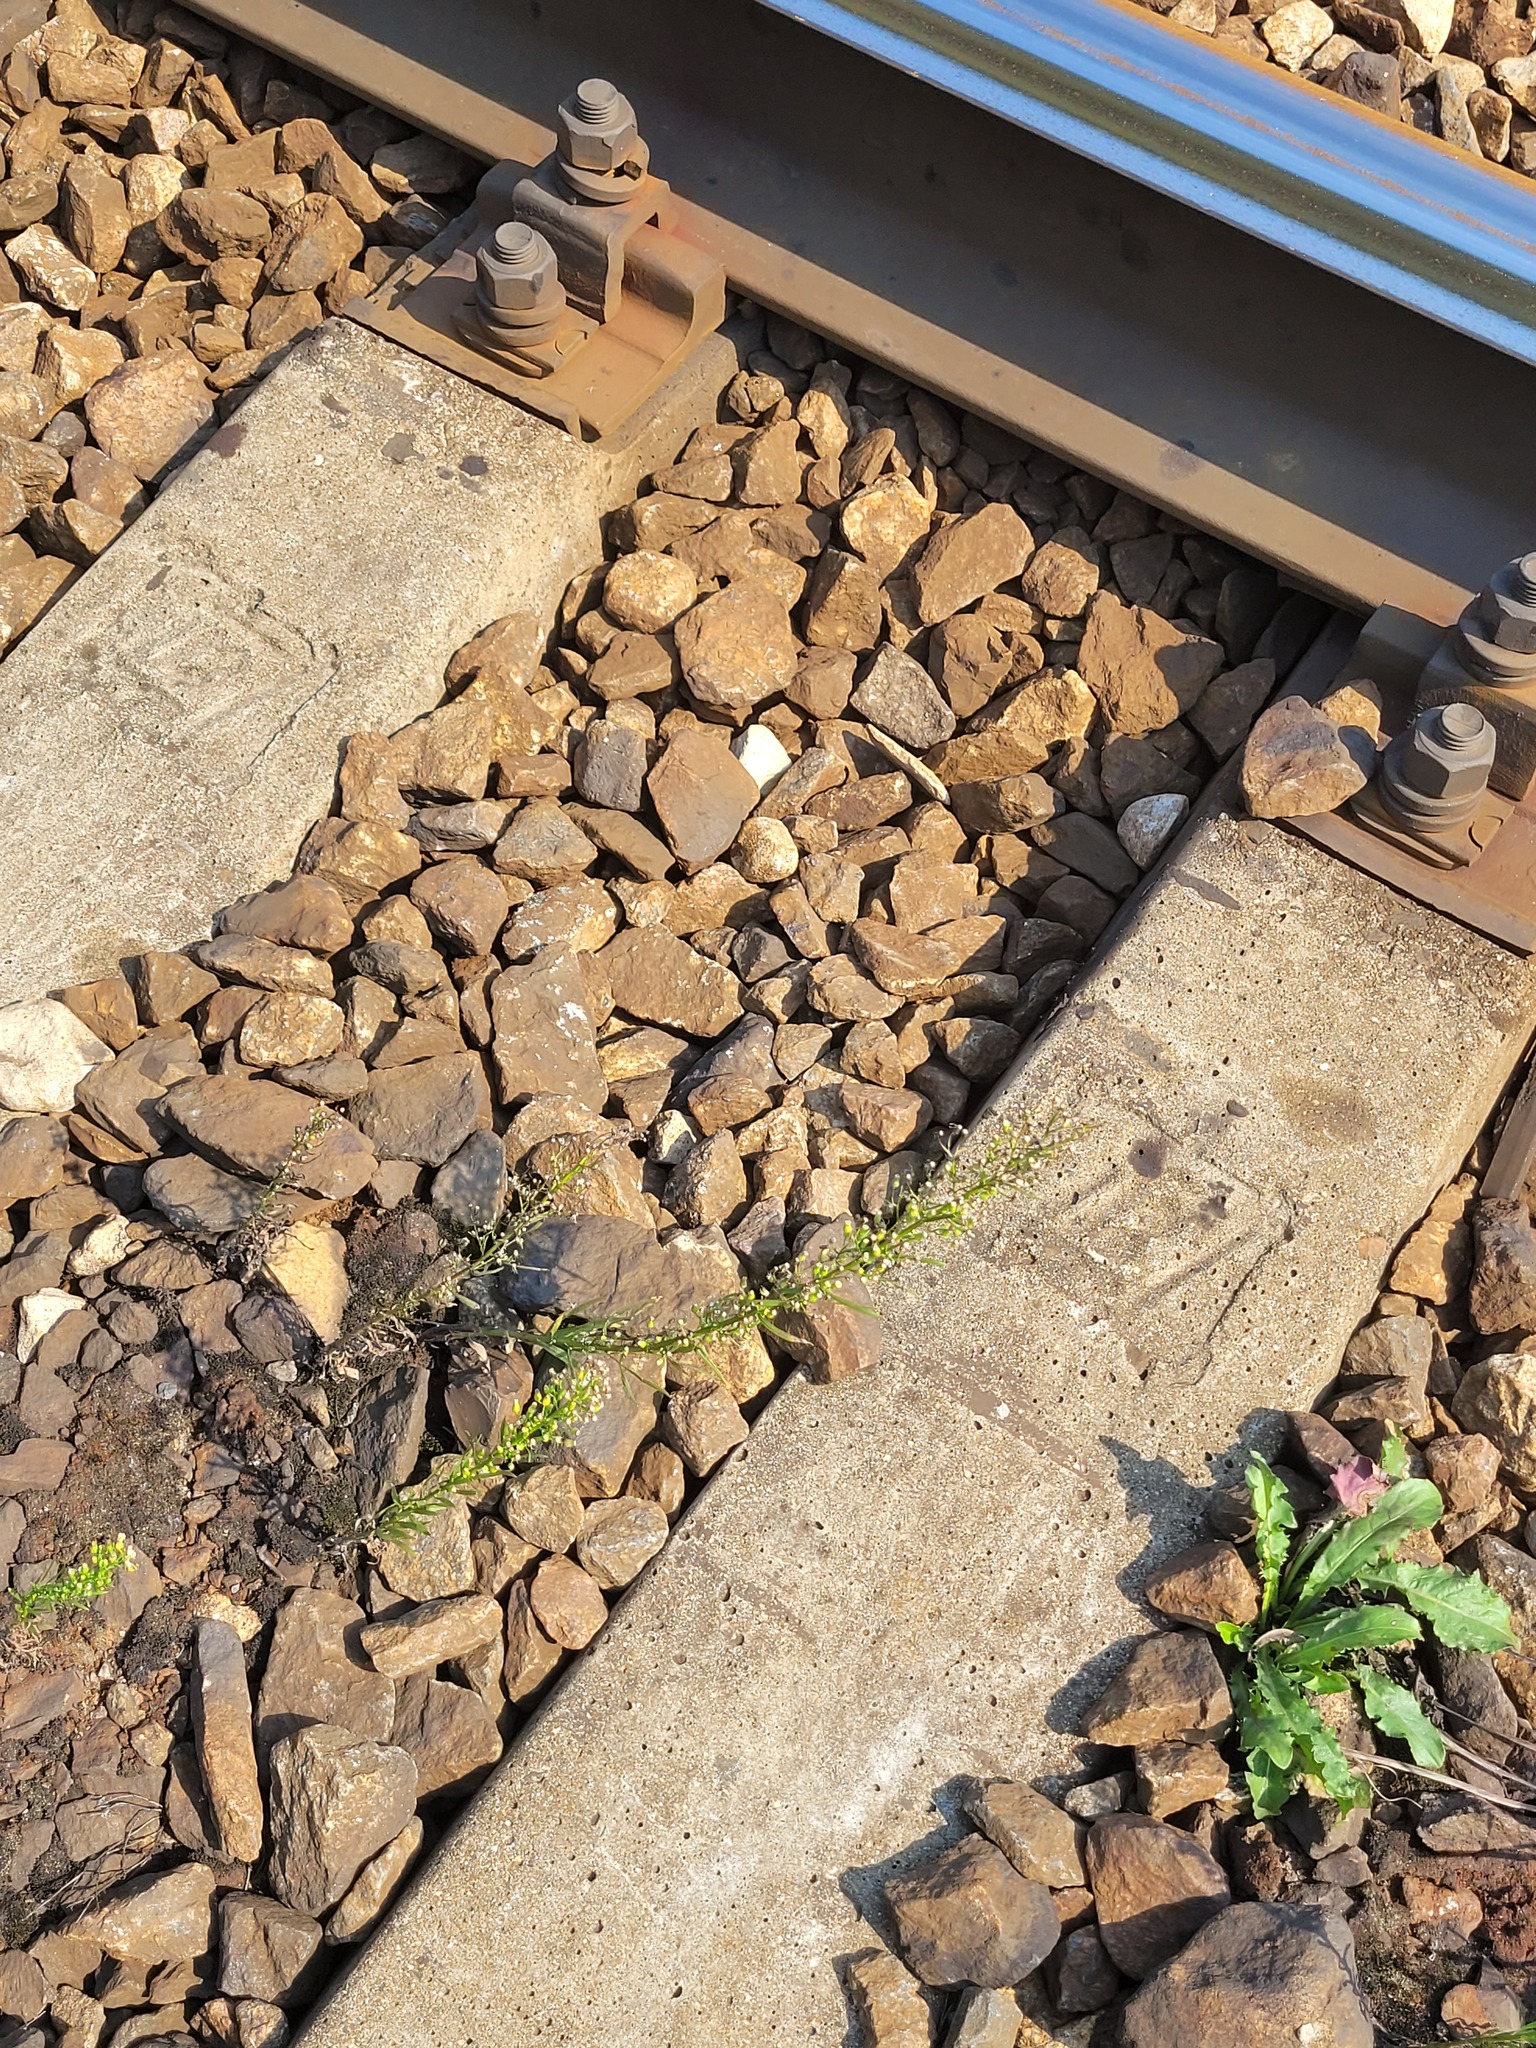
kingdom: Plantae
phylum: Tracheophyta
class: Magnoliopsida
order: Asterales
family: Asteraceae
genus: Erigeron
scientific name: Erigeron canadensis
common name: Canadian fleabane
